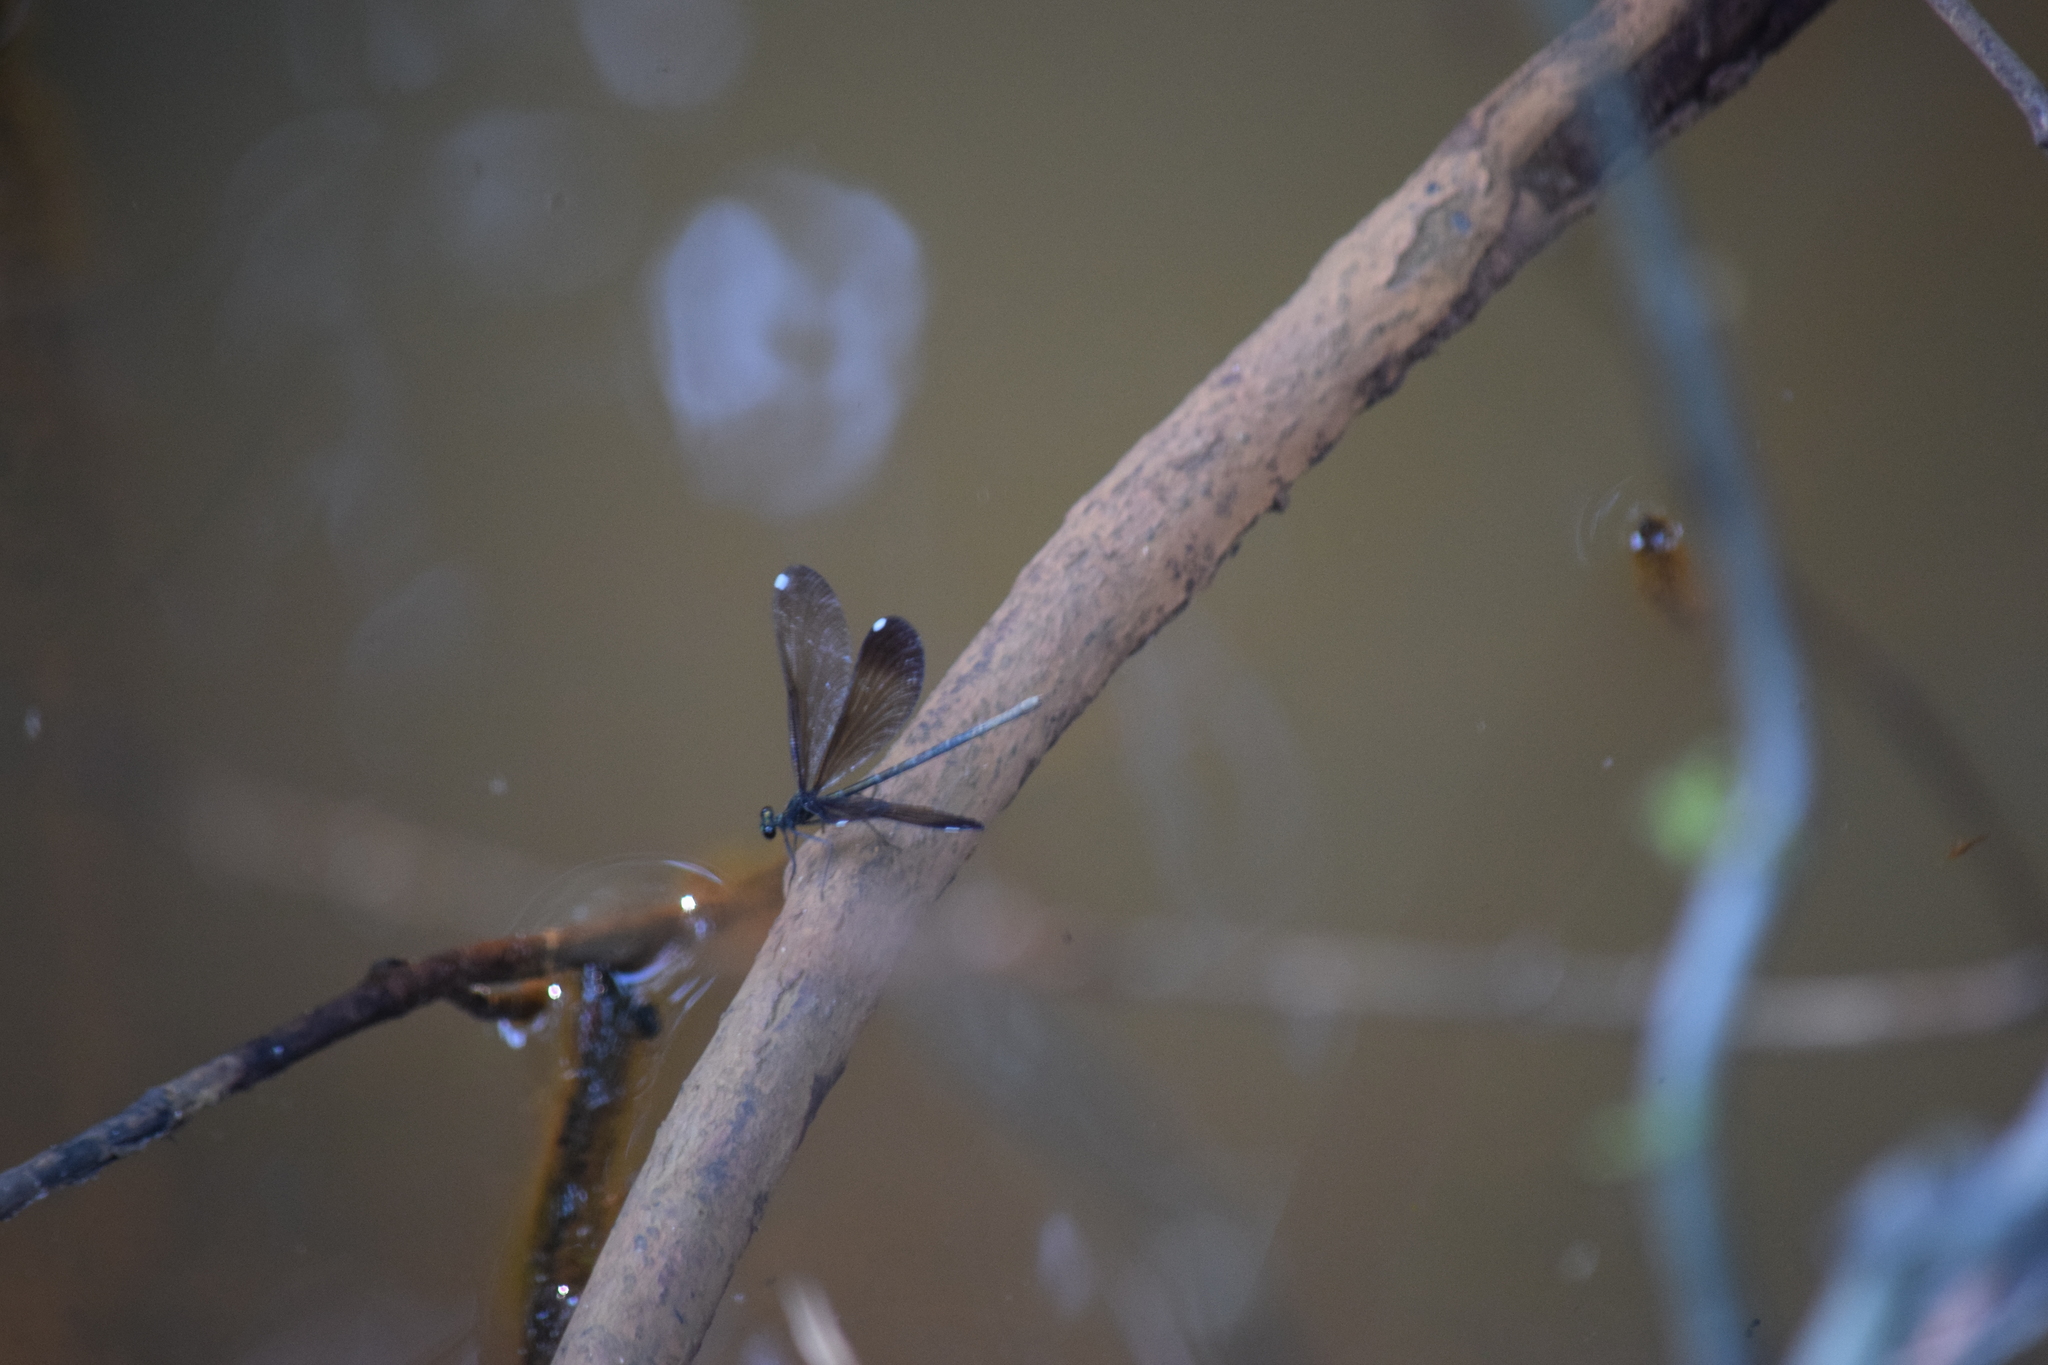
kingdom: Animalia
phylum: Arthropoda
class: Insecta
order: Odonata
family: Calopterygidae
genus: Calopteryx
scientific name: Calopteryx maculata
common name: Ebony jewelwing
